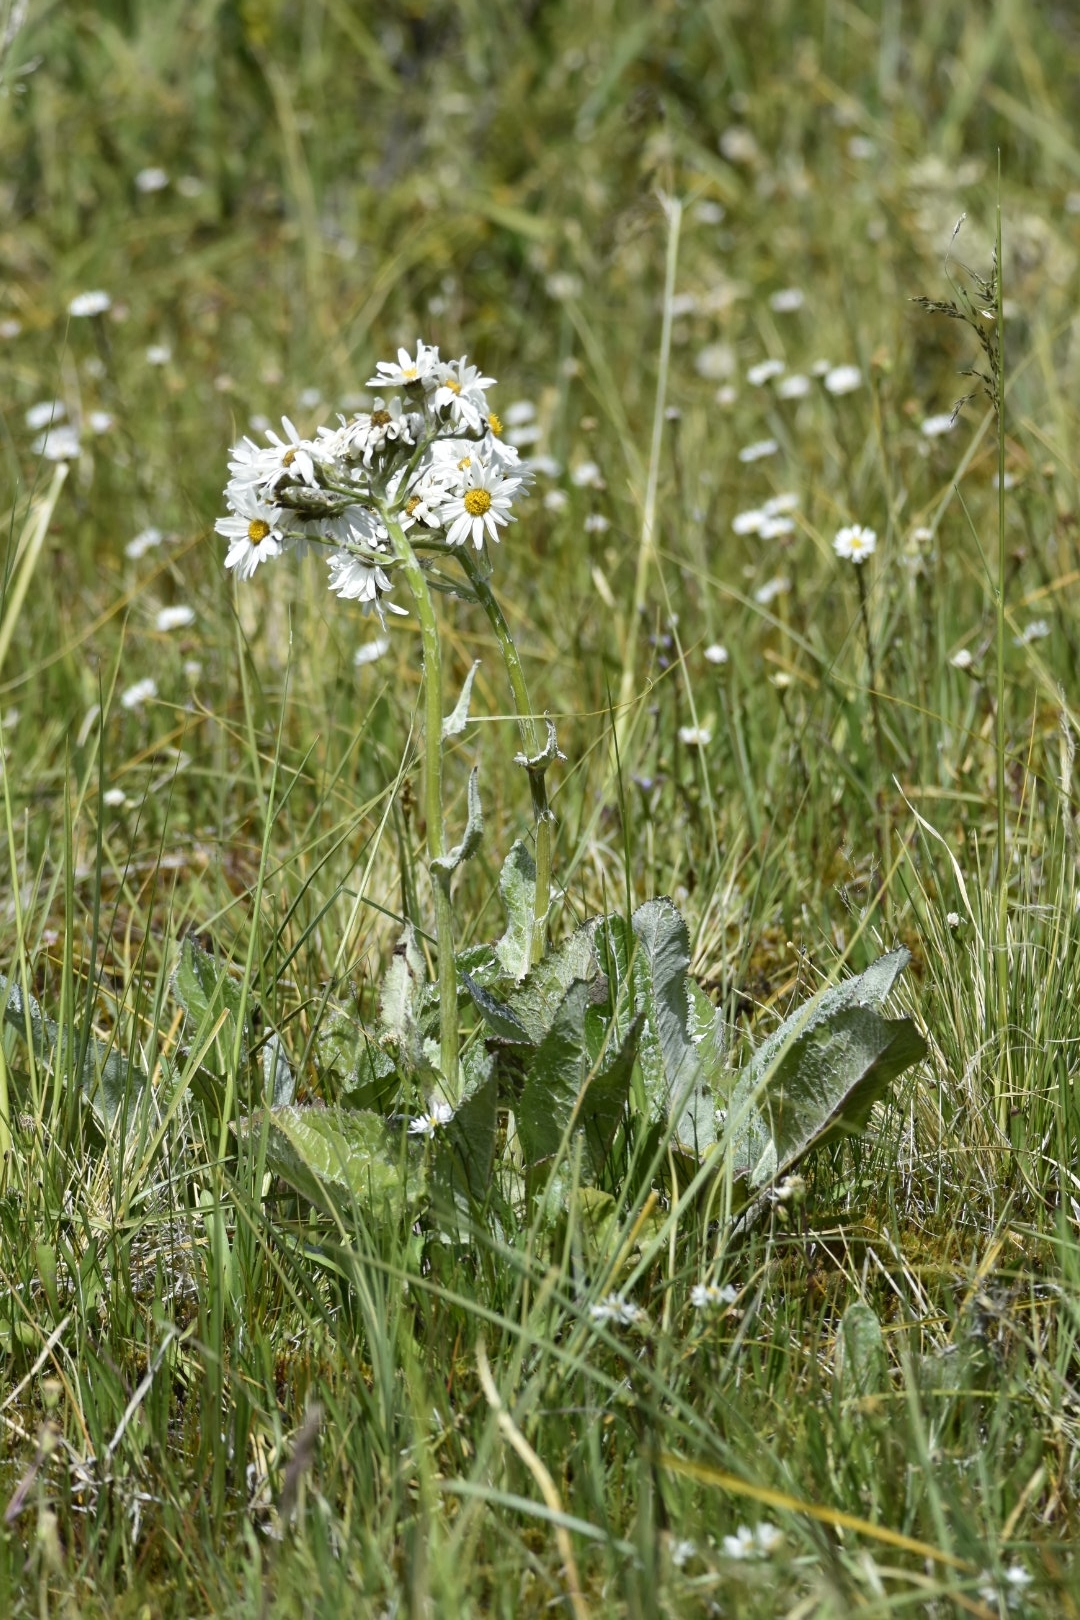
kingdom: Plantae
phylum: Tracheophyta
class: Magnoliopsida
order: Asterales
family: Asteraceae
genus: Senecio
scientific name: Senecio smithii
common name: Magellan ragwort
